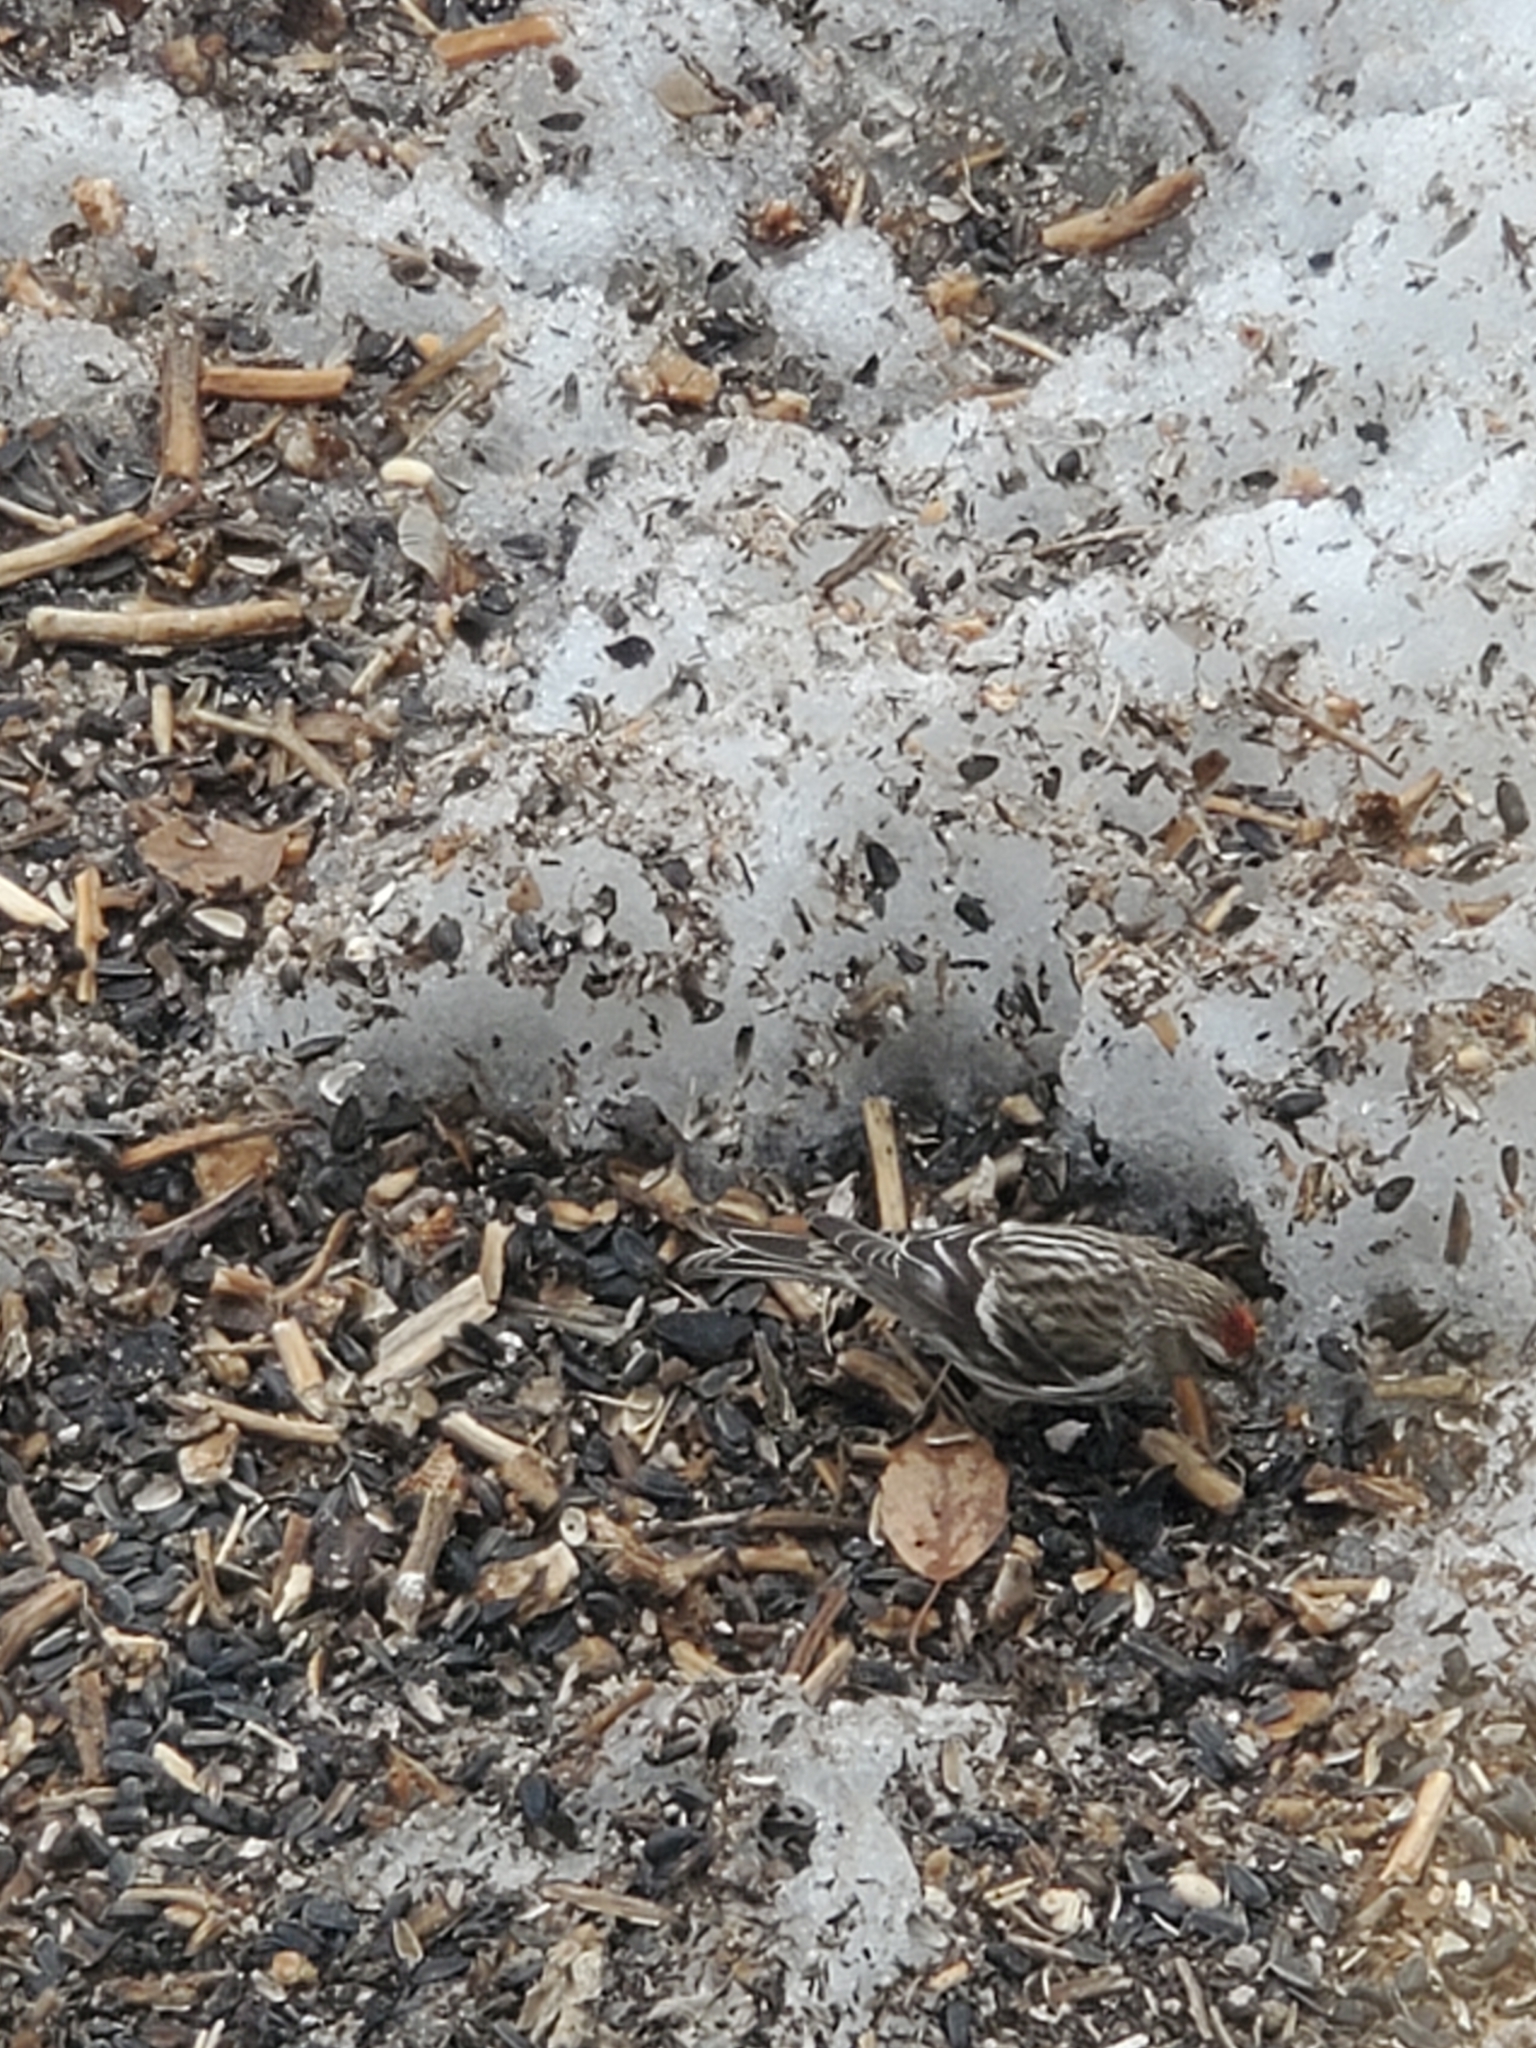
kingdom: Animalia
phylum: Chordata
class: Aves
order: Passeriformes
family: Fringillidae
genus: Acanthis
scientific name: Acanthis flammea
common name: Common redpoll
